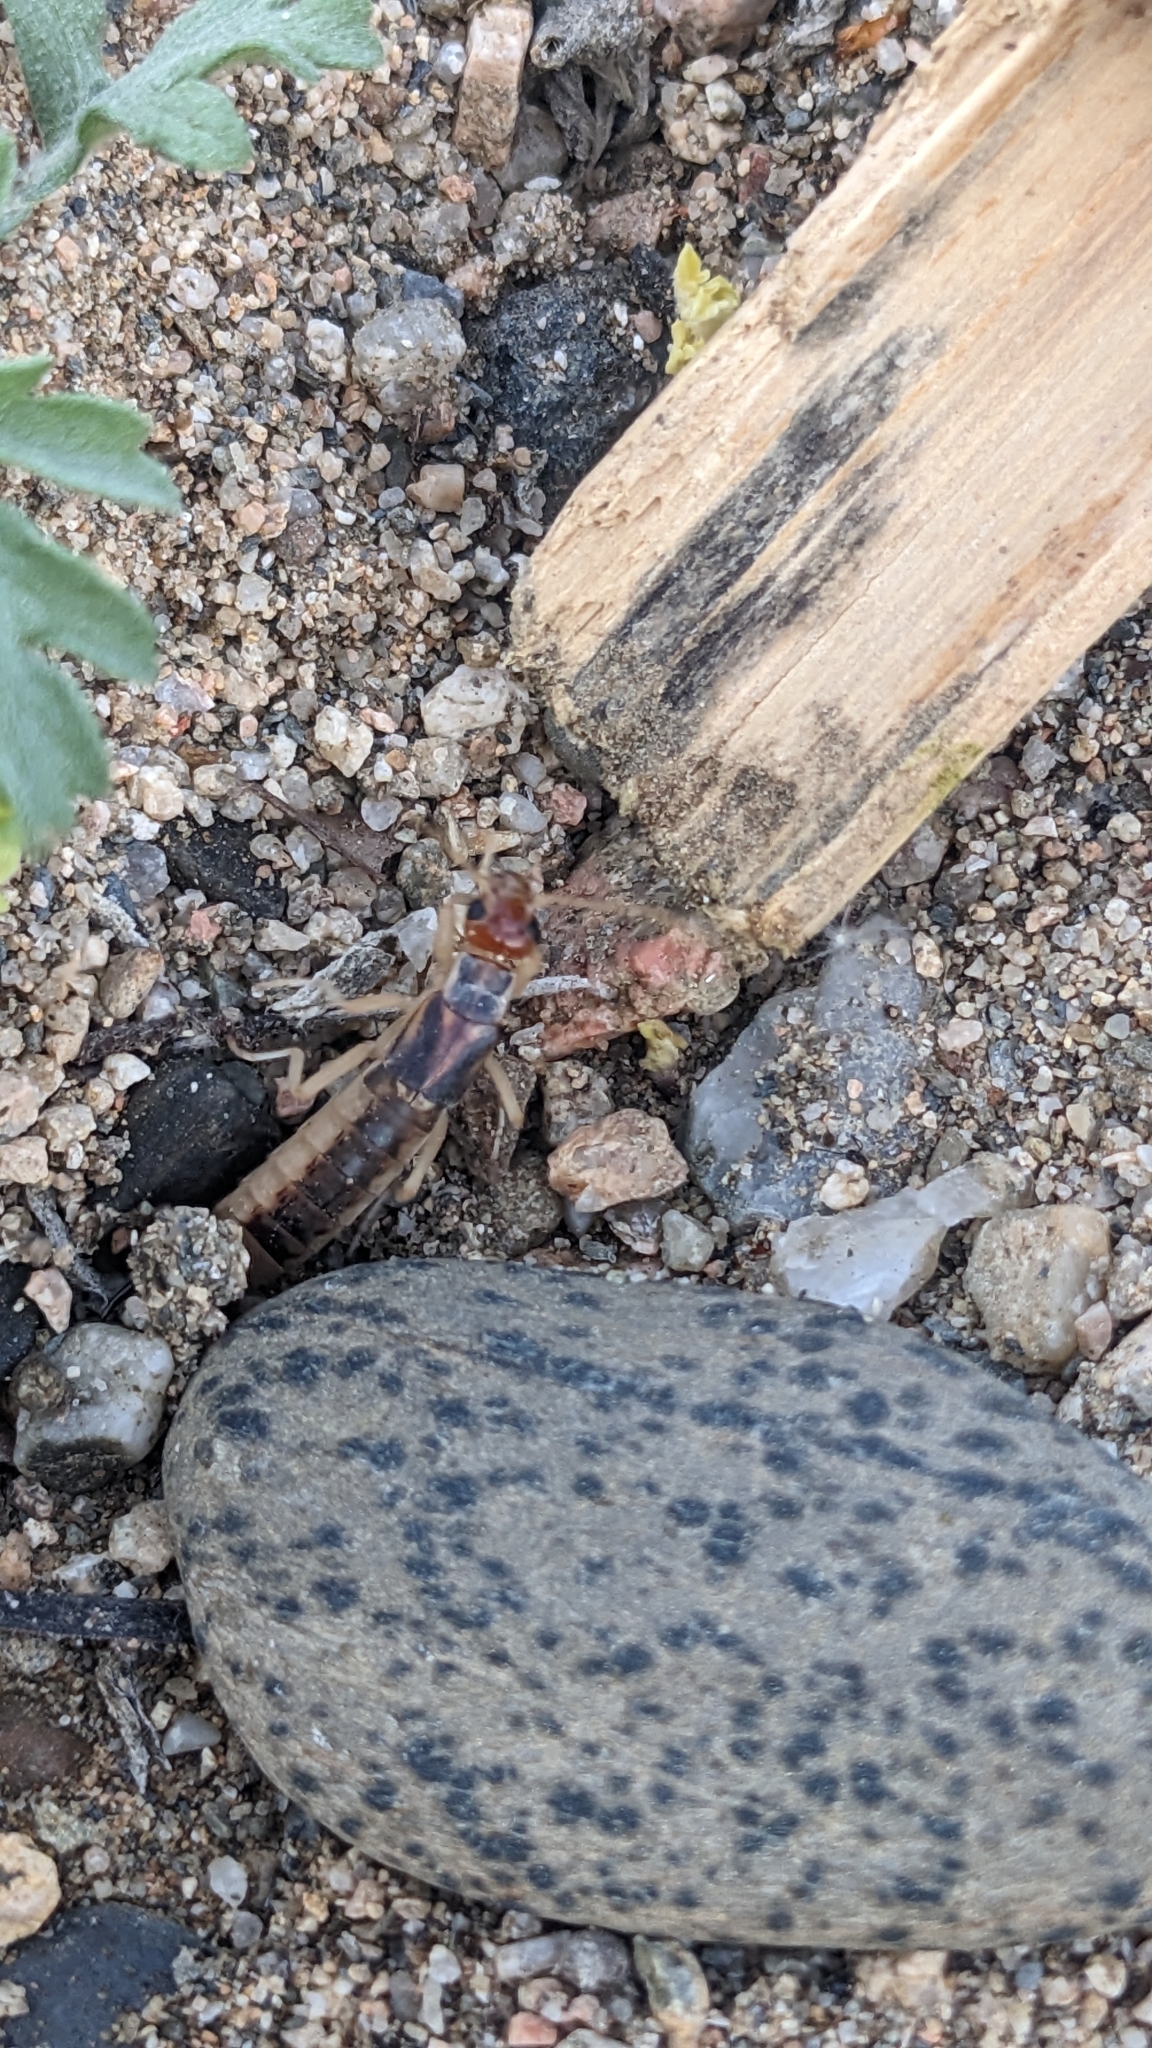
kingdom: Animalia
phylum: Arthropoda
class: Insecta
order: Dermaptera
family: Labiduridae
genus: Labidura
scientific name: Labidura riparia
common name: Striped earwig
